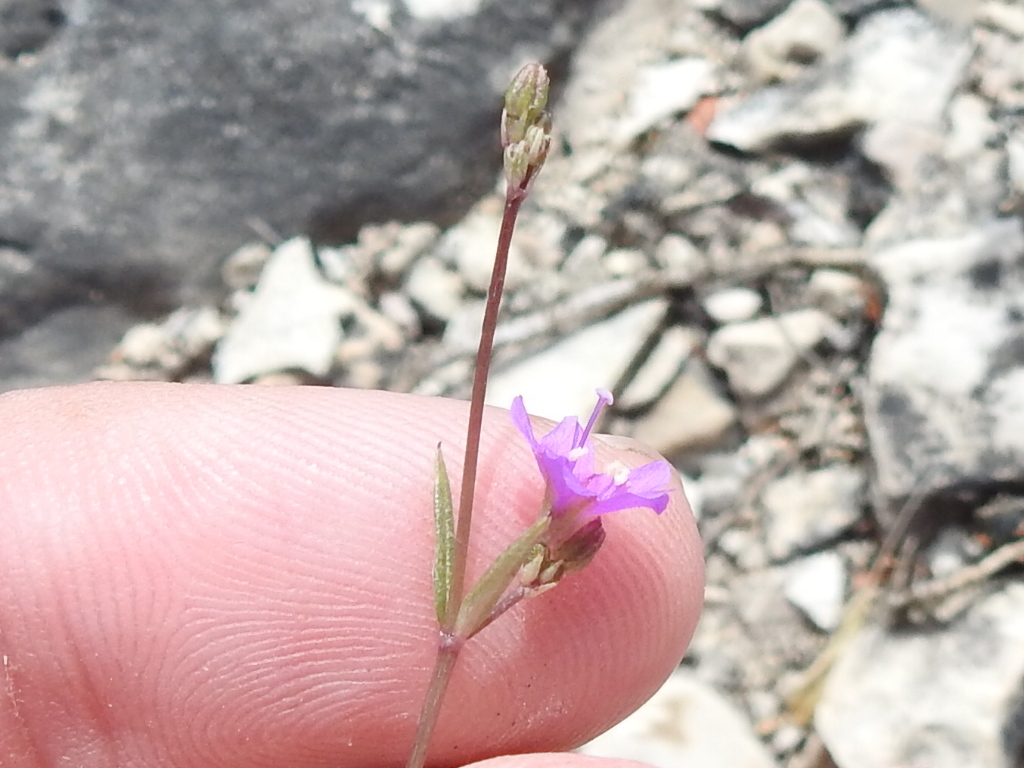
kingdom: Plantae
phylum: Tracheophyta
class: Magnoliopsida
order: Caryophyllales
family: Nyctaginaceae
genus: Boerhavia
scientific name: Boerhavia linearifolia
